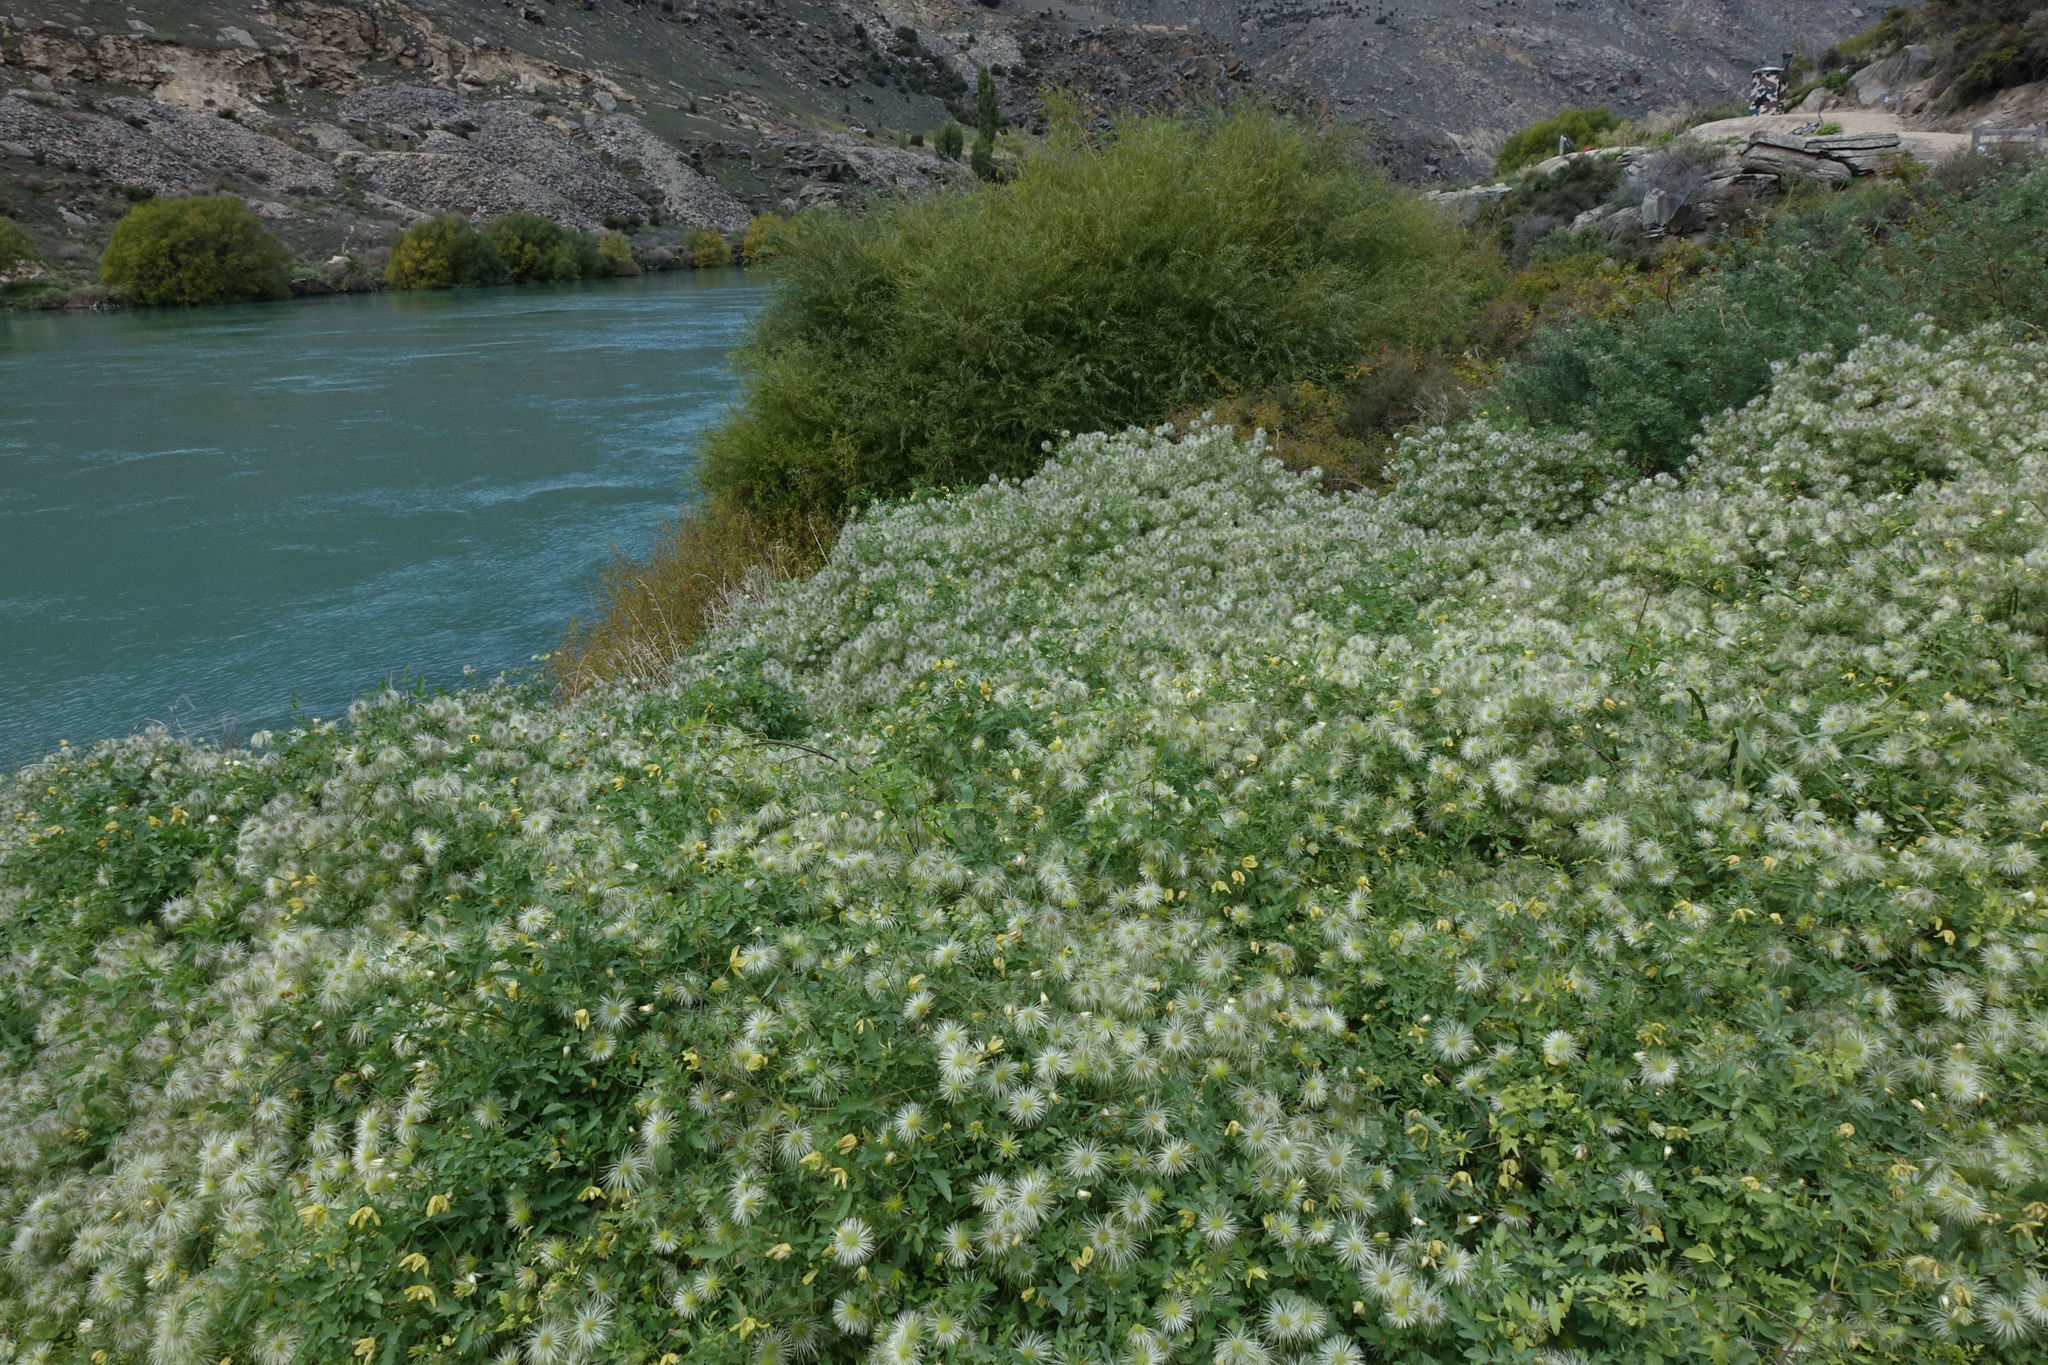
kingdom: Plantae
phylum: Tracheophyta
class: Magnoliopsida
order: Ranunculales
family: Ranunculaceae
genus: Clematis
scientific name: Clematis tangutica
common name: Orange-peel clematis
